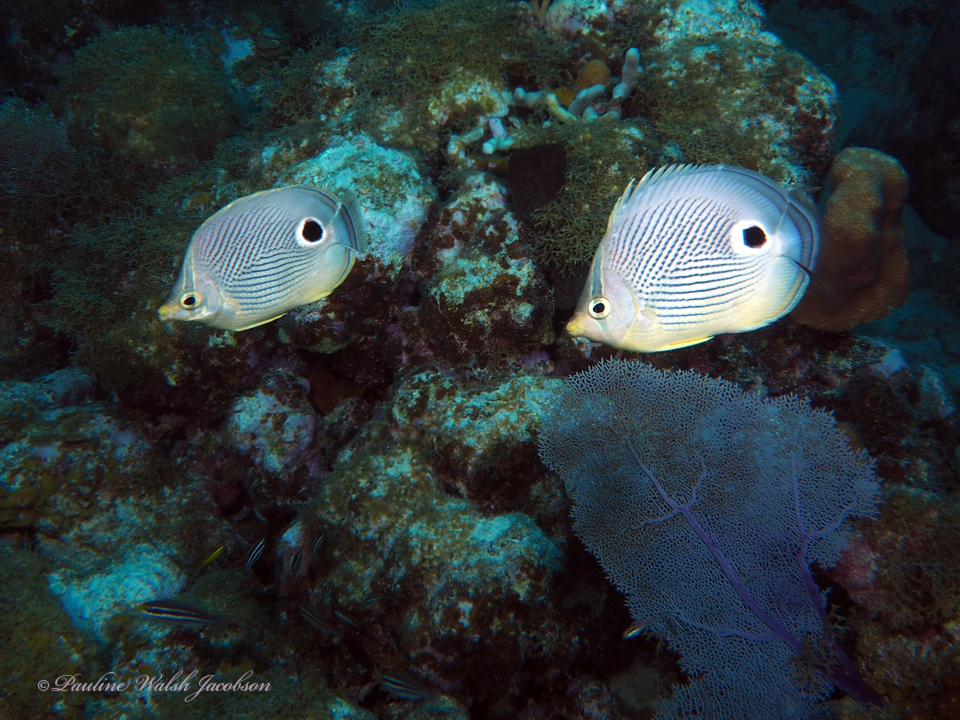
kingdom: Animalia
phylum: Chordata
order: Perciformes
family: Chaetodontidae
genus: Chaetodon
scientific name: Chaetodon capistratus
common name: Kete
